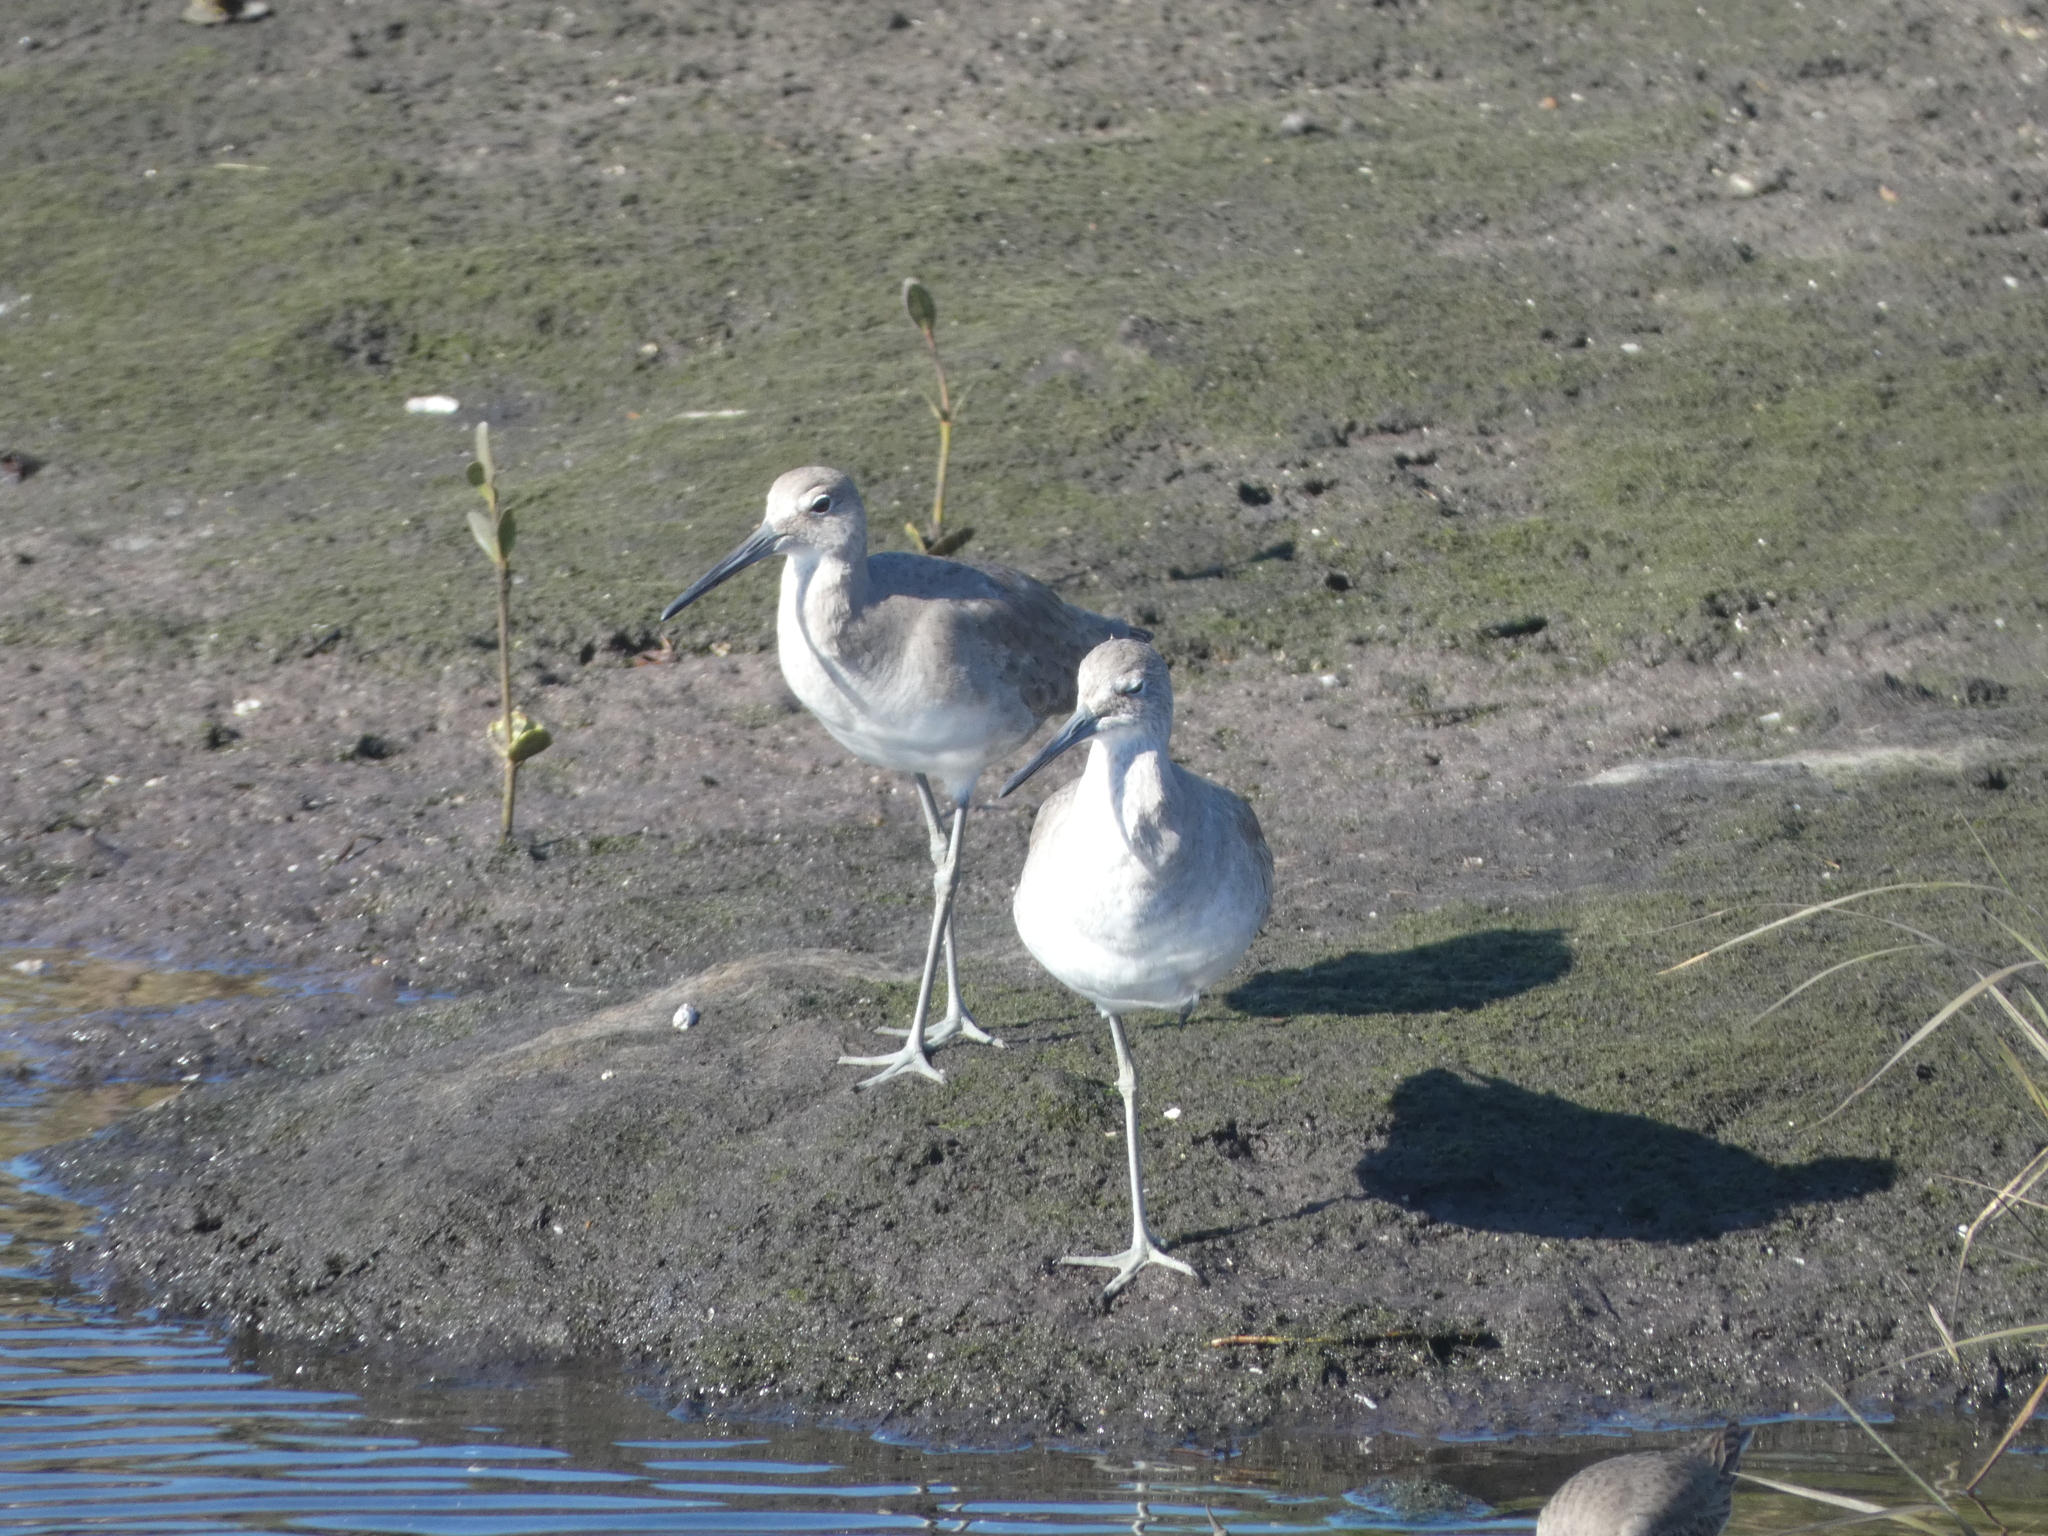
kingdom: Animalia
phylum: Chordata
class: Aves
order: Charadriiformes
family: Scolopacidae
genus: Tringa
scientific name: Tringa semipalmata
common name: Willet
